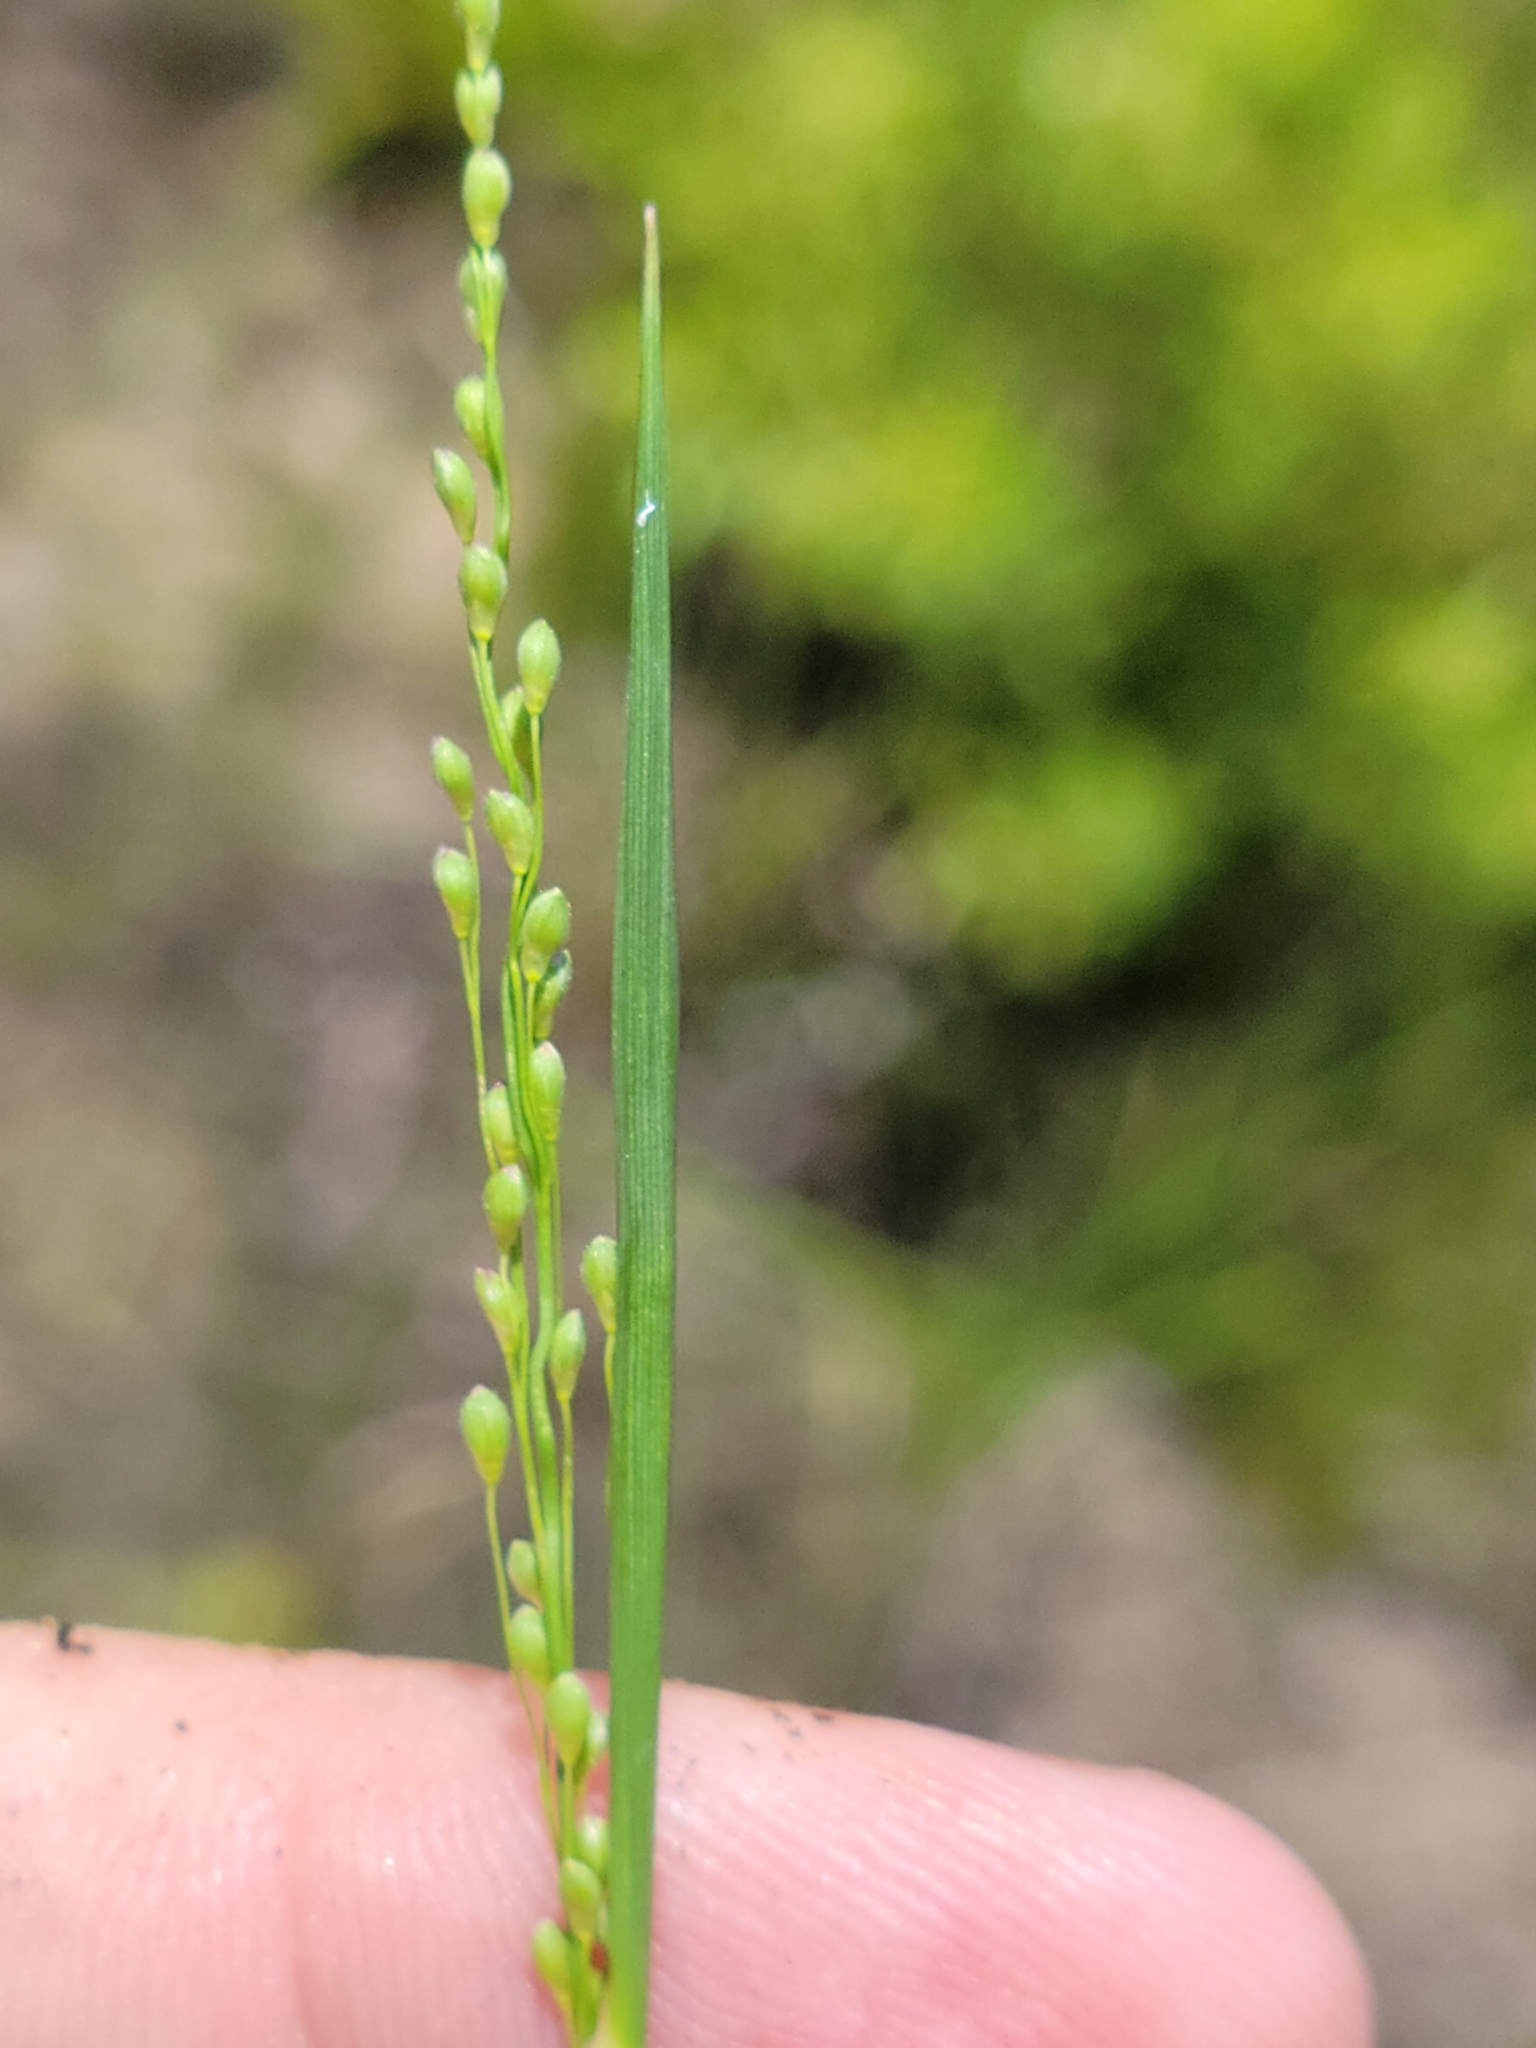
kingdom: Plantae
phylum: Tracheophyta
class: Liliopsida
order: Poales
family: Poaceae
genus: Dichanthelium
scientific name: Dichanthelium neuranthum
